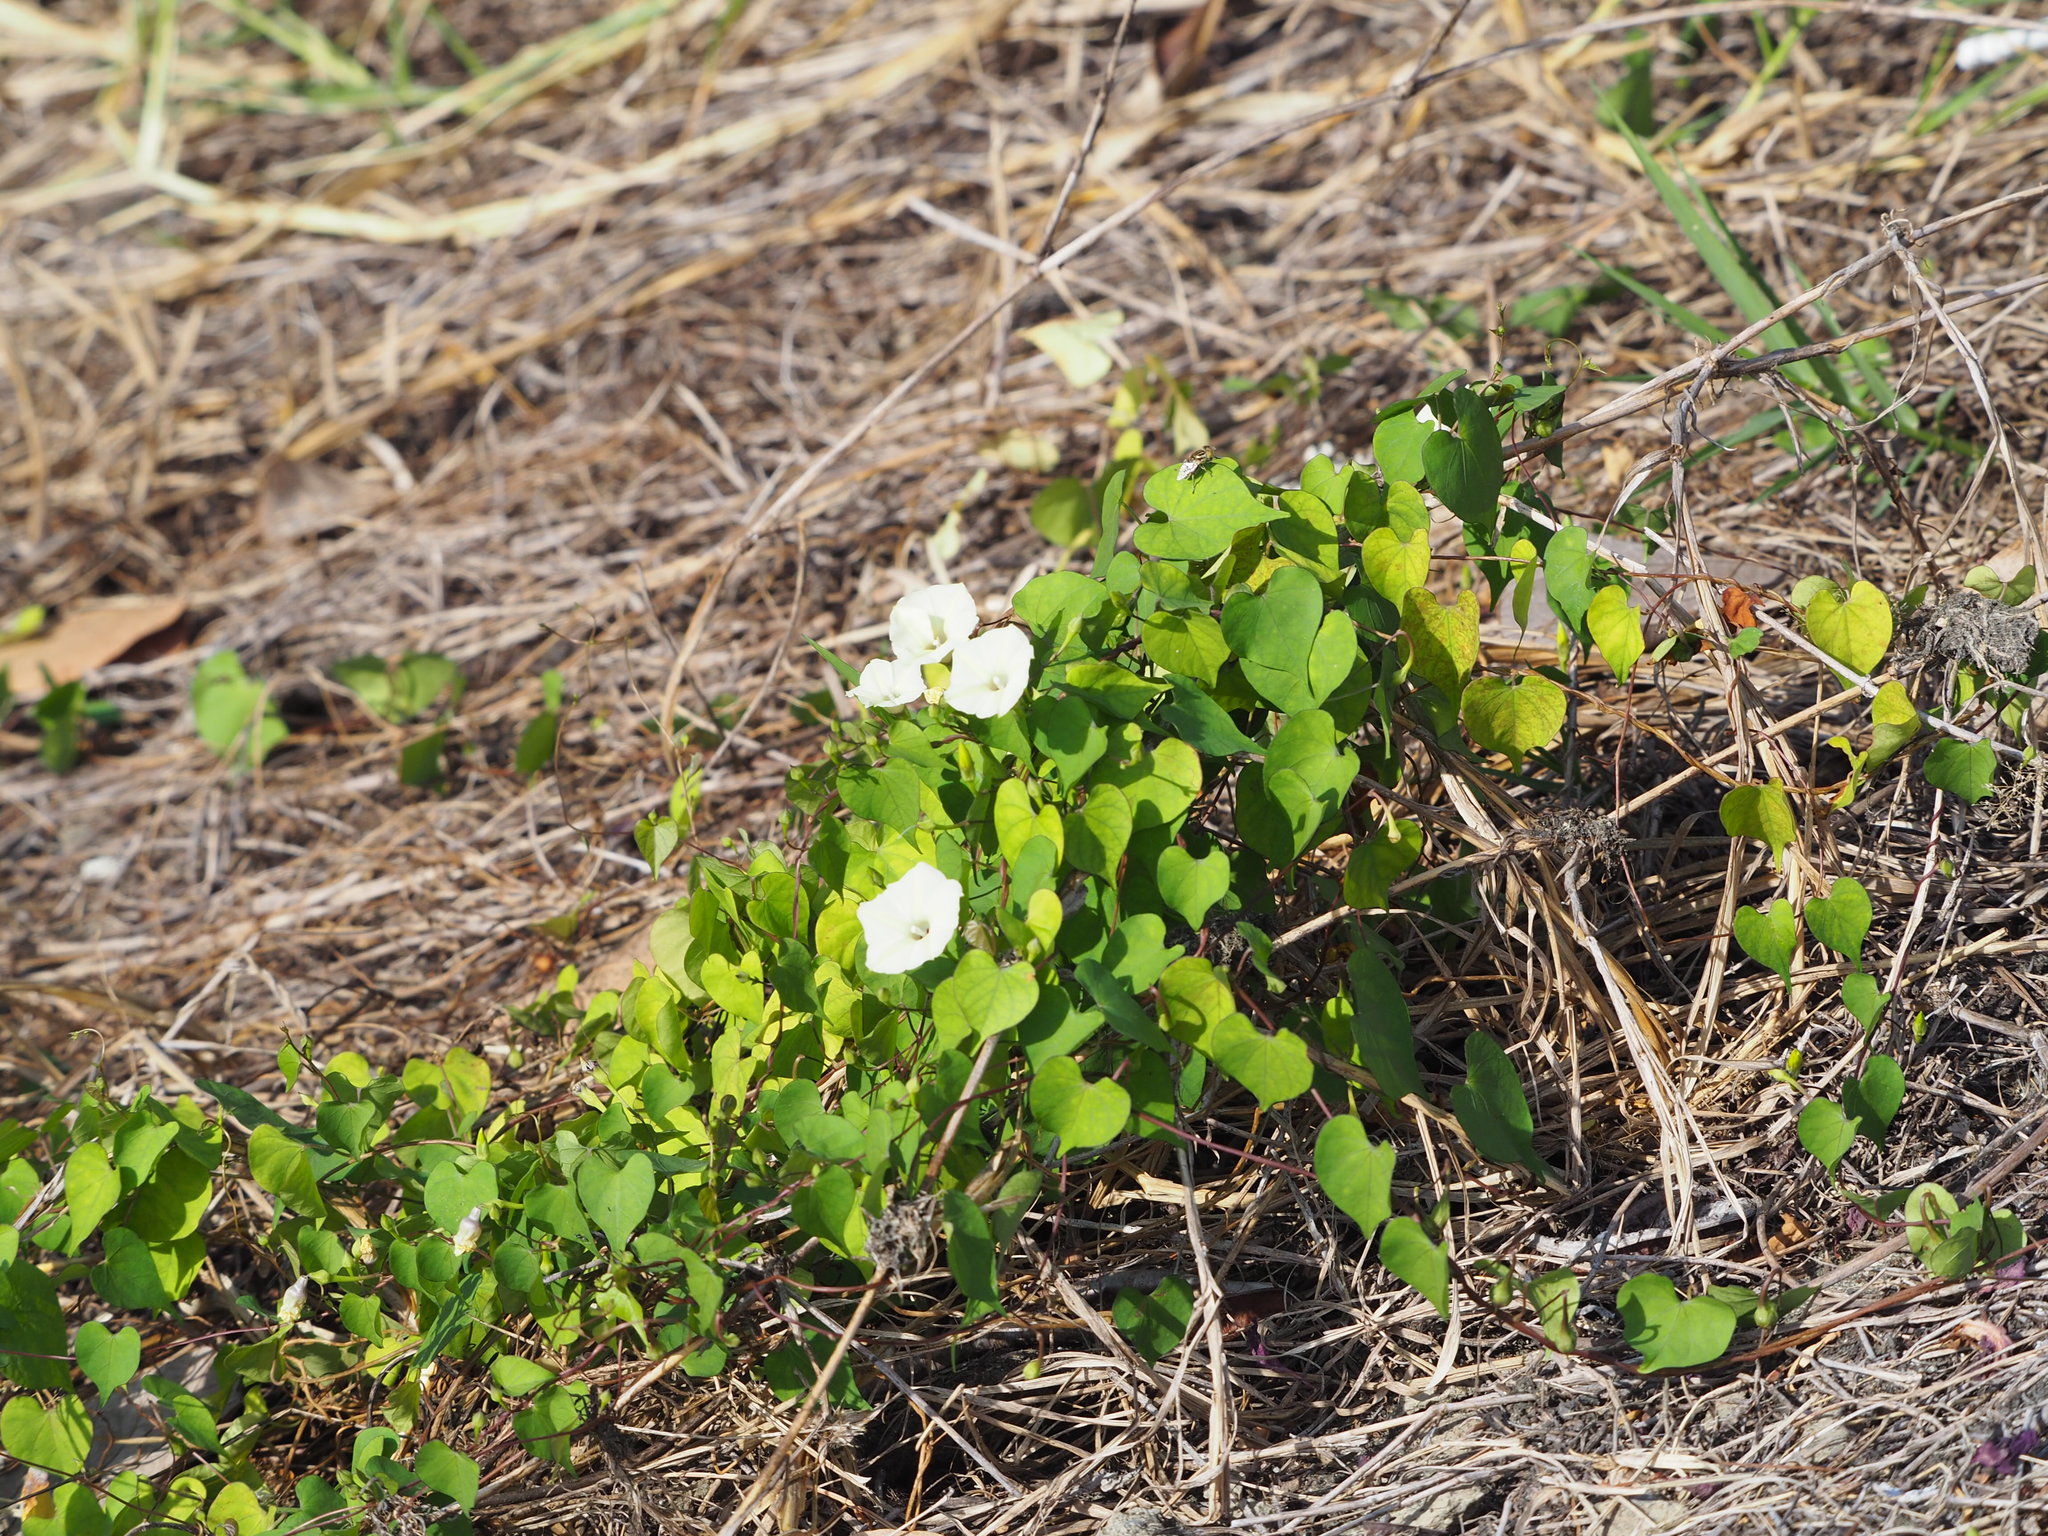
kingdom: Plantae
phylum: Tracheophyta
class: Magnoliopsida
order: Solanales
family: Convolvulaceae
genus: Ipomoea
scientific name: Ipomoea obscura
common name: Obscure morning-glory
